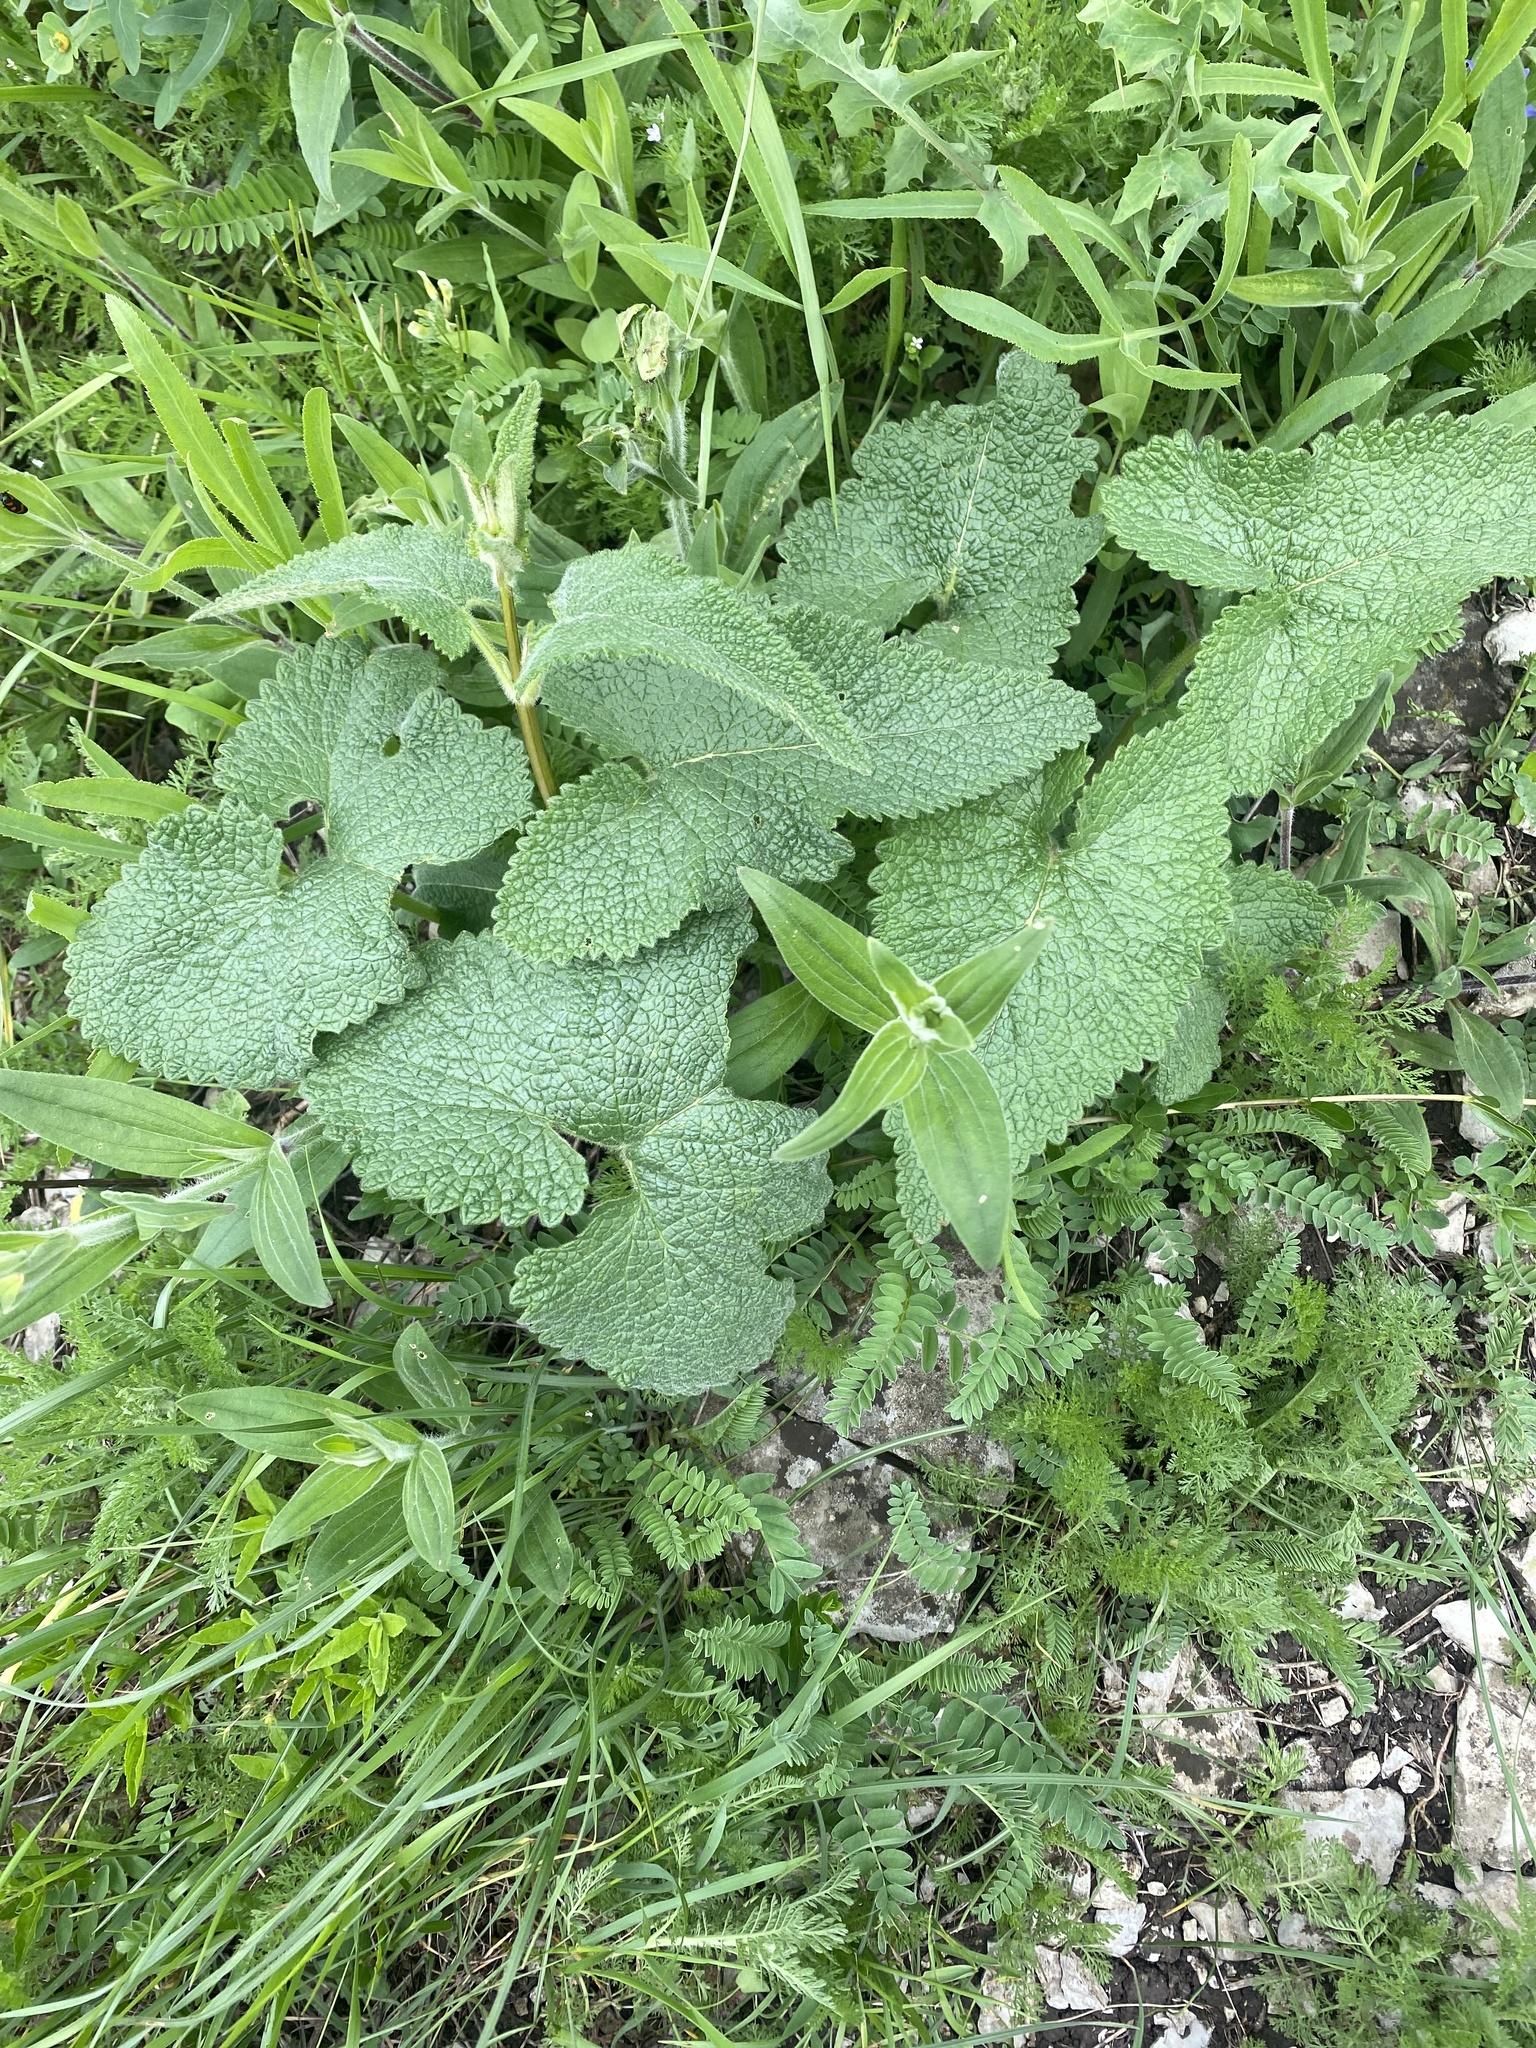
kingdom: Plantae
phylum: Tracheophyta
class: Magnoliopsida
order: Lamiales
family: Lamiaceae
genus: Phlomoides
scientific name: Phlomoides tuberosa
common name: Tuberous jerusalem sage
